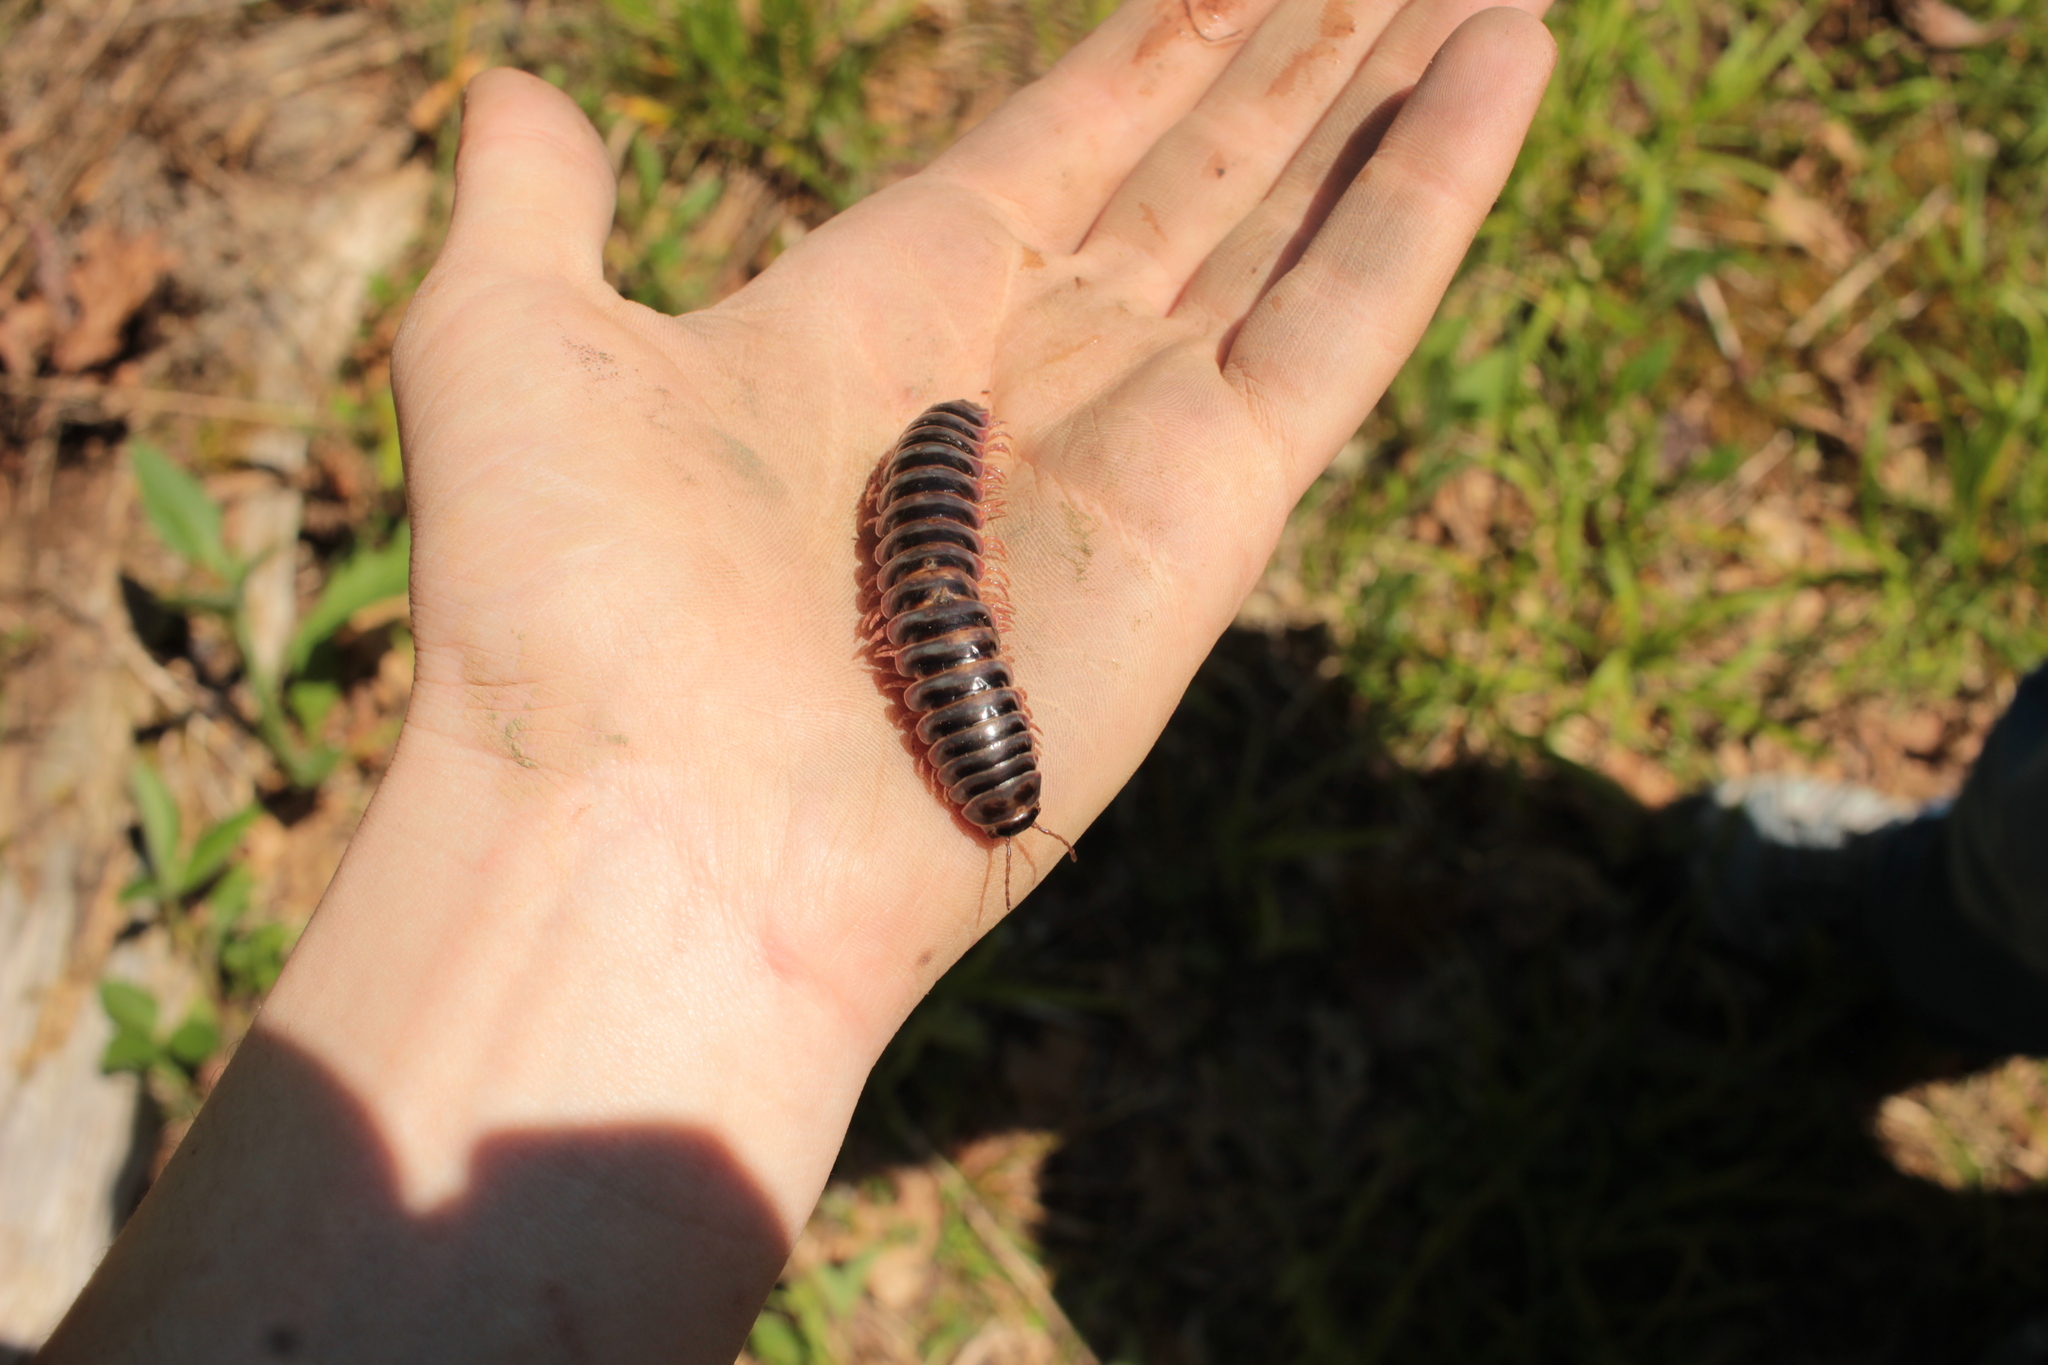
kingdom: Animalia
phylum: Arthropoda
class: Diplopoda
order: Polydesmida
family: Xystodesmidae
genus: Falloria
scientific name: Falloria ainsliei
